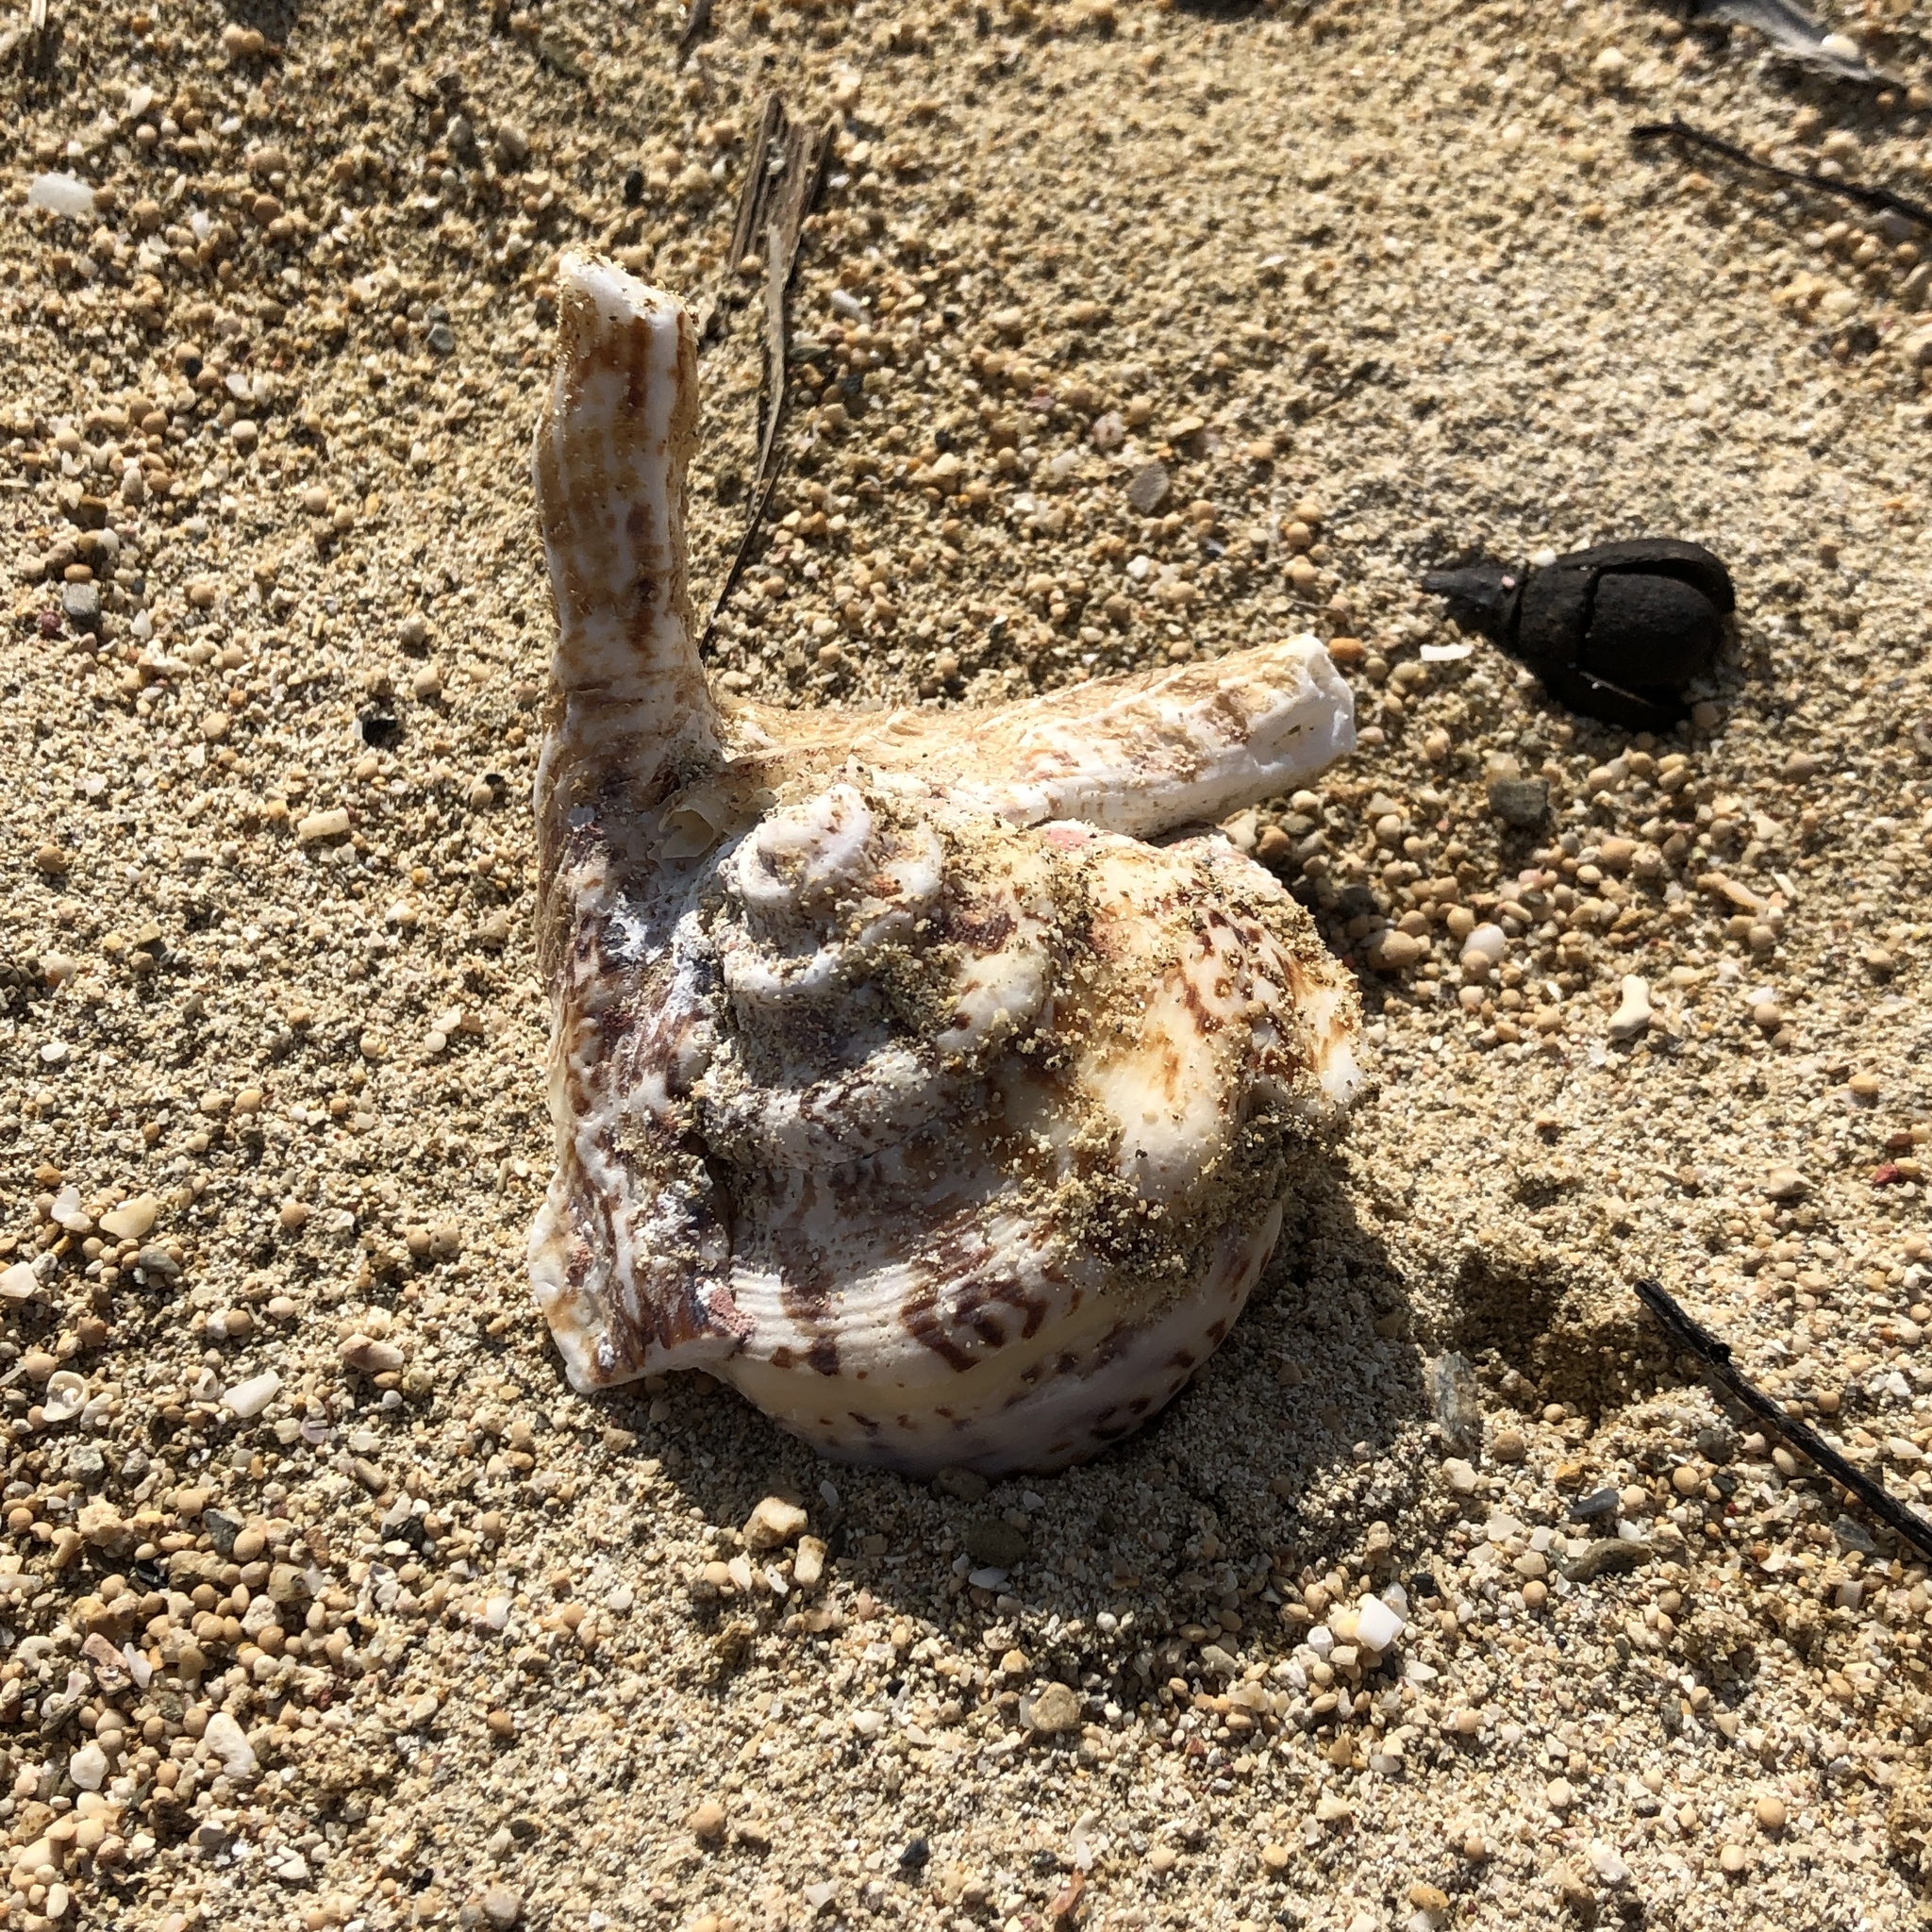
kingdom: Animalia
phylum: Mollusca
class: Gastropoda
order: Littorinimorpha
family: Strombidae
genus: Harpago
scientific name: Harpago chiragra
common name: Chiragra spider conch
